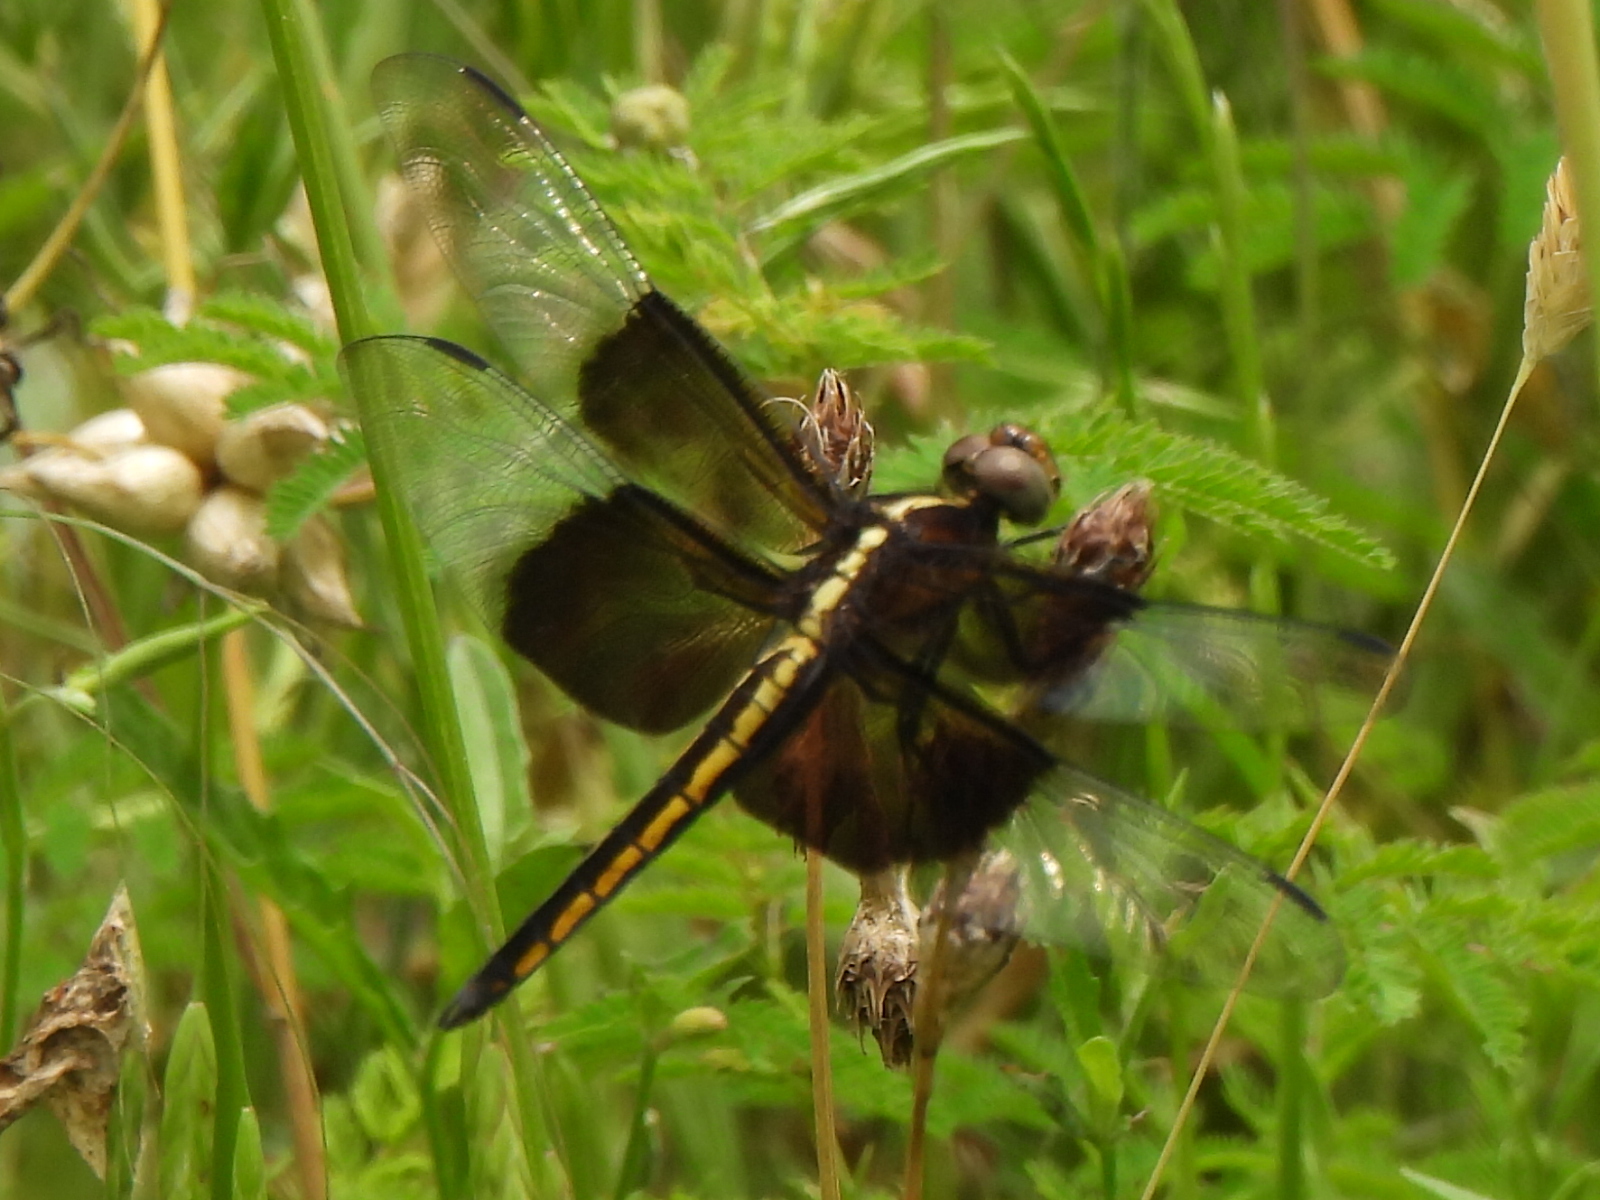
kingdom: Animalia
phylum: Arthropoda
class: Insecta
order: Odonata
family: Libellulidae
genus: Libellula
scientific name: Libellula luctuosa
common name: Widow skimmer
